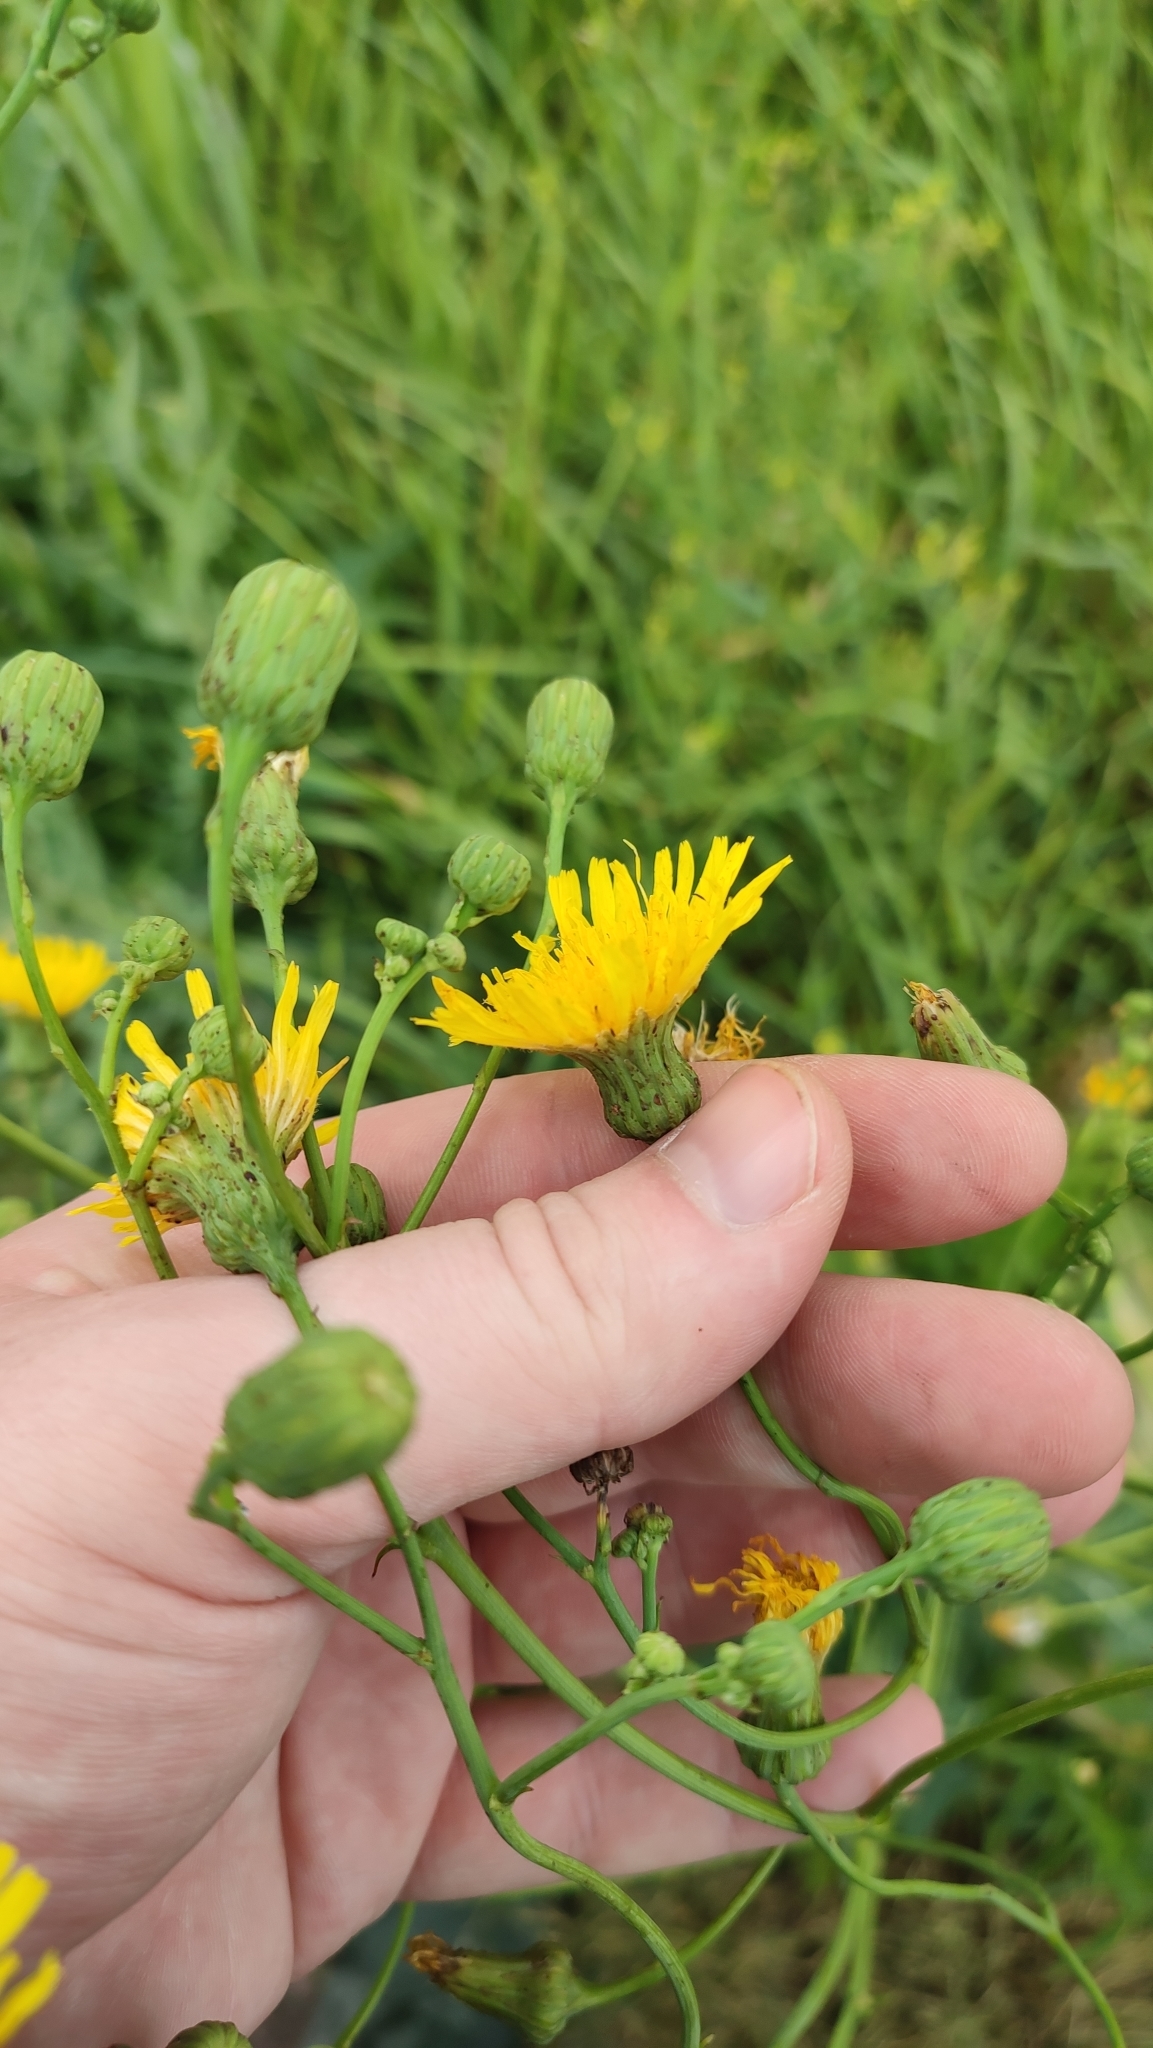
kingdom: Plantae
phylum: Tracheophyta
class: Magnoliopsida
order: Asterales
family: Asteraceae
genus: Sonchus
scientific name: Sonchus arvensis
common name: Perennial sow-thistle
